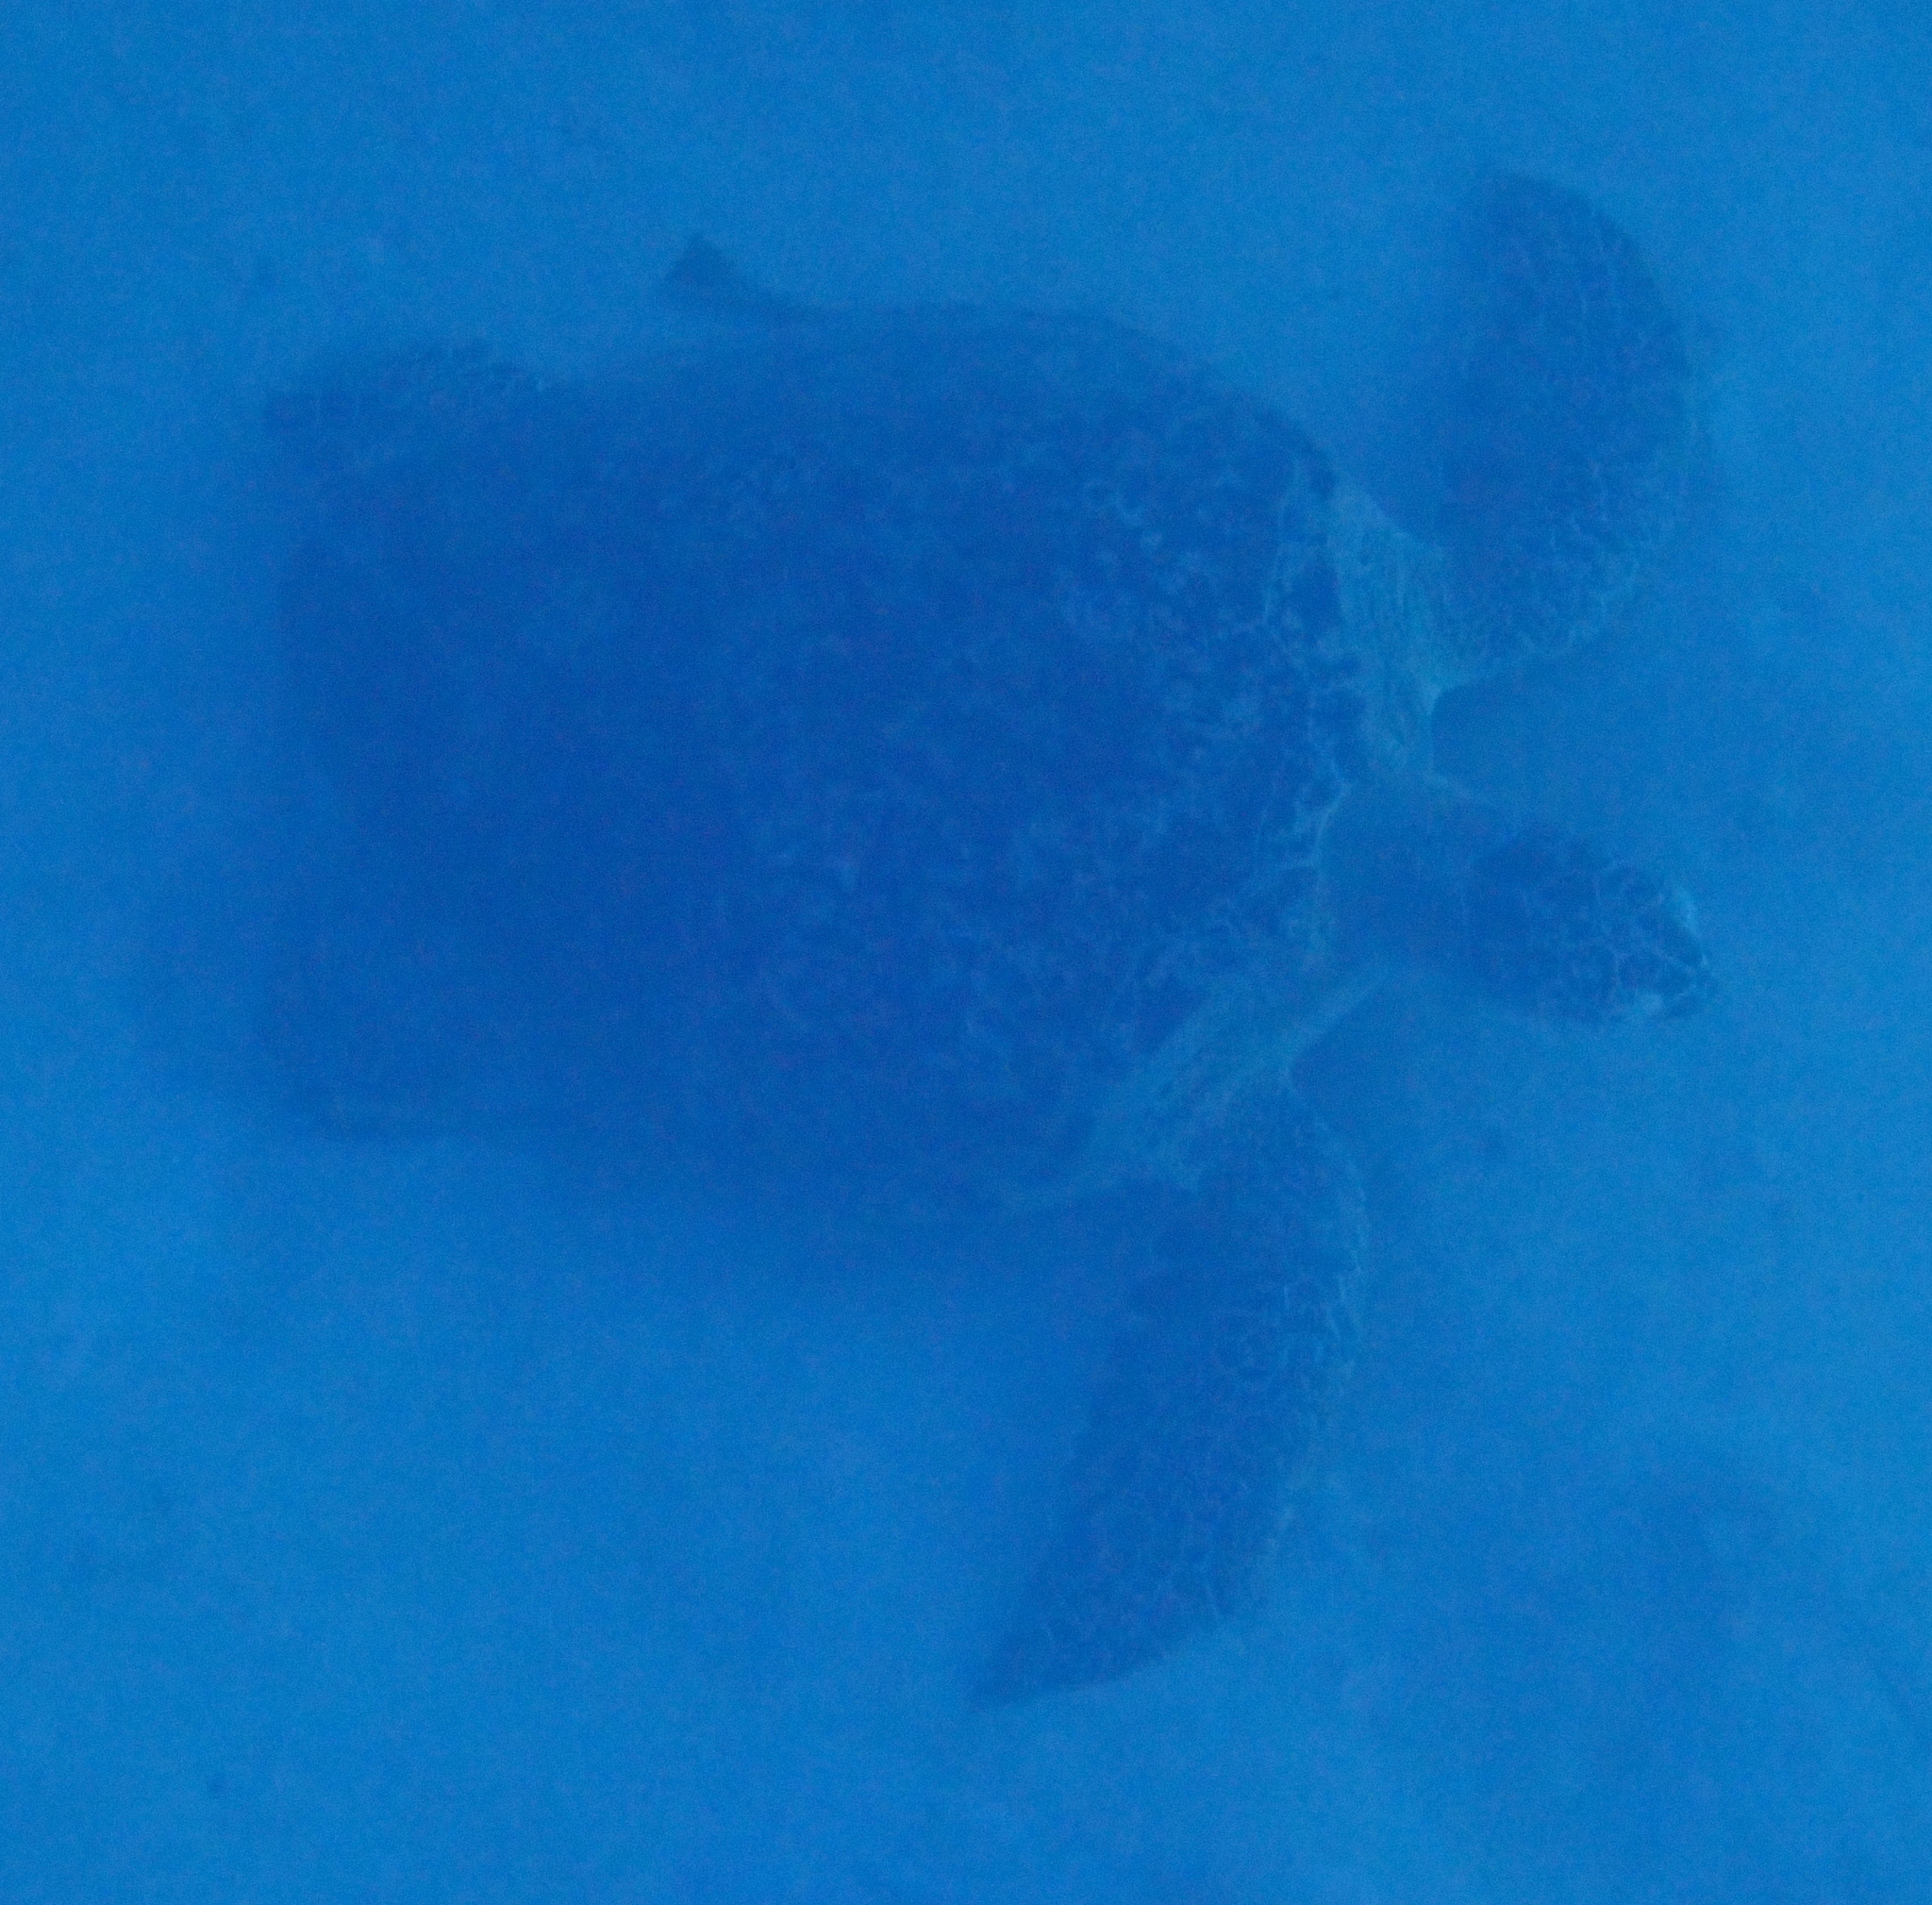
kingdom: Animalia
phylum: Chordata
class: Testudines
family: Cheloniidae
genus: Chelonia
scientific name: Chelonia mydas
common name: Green turtle
